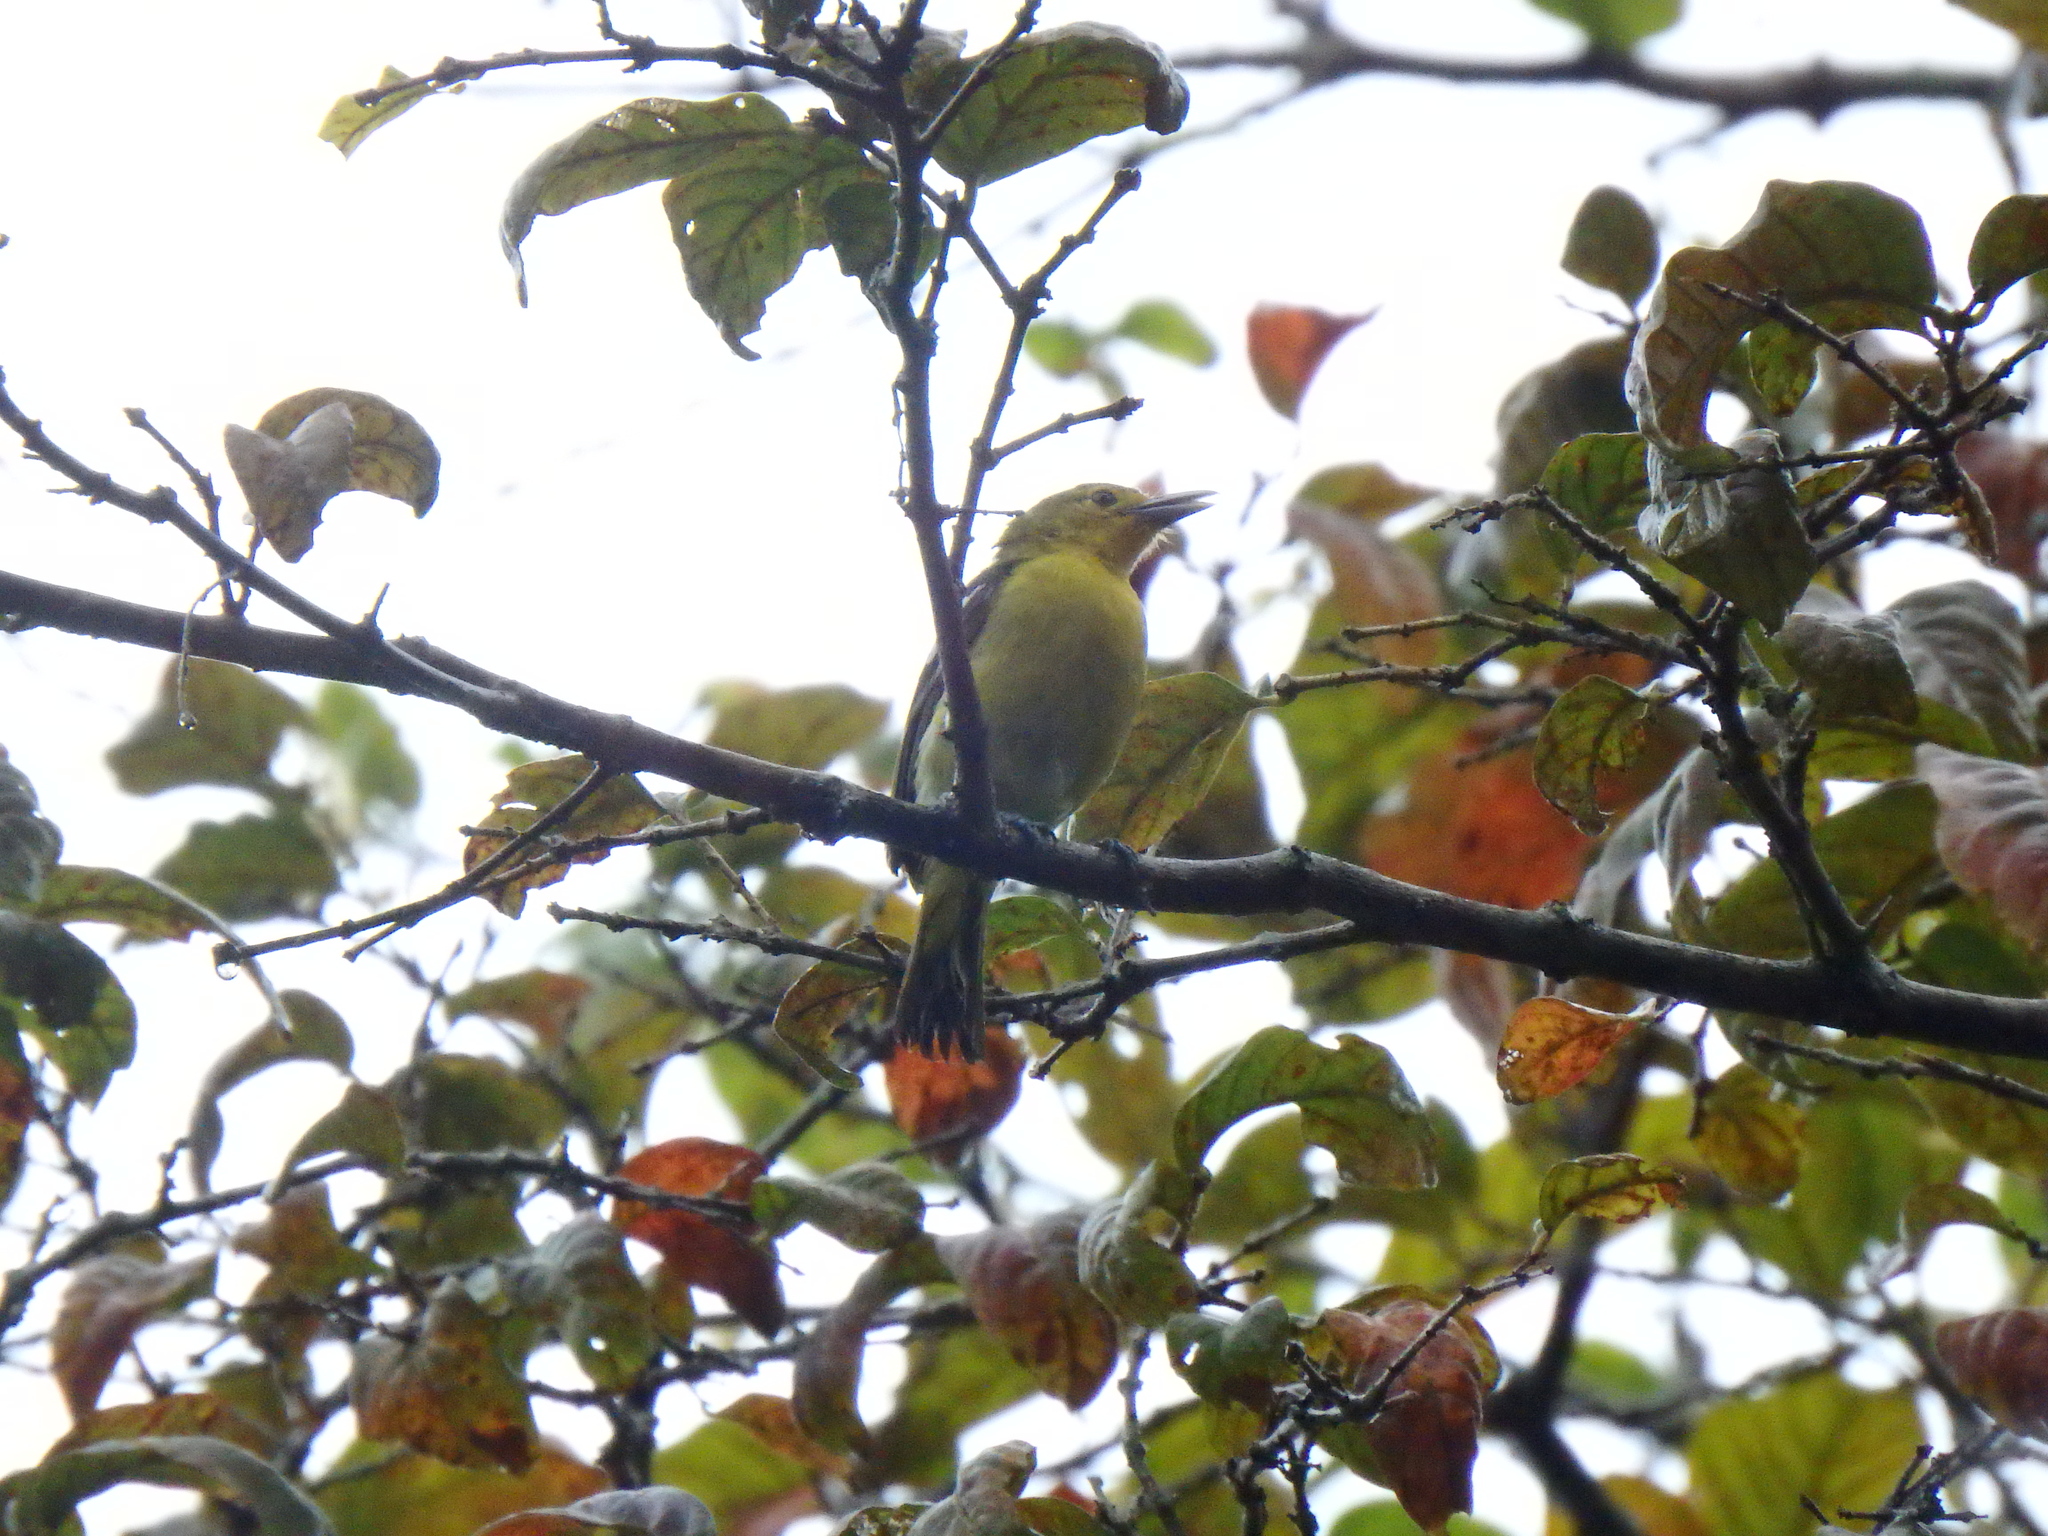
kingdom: Animalia
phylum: Chordata
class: Aves
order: Passeriformes
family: Aegithinidae
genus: Aegithina
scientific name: Aegithina tiphia
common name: Common iora
